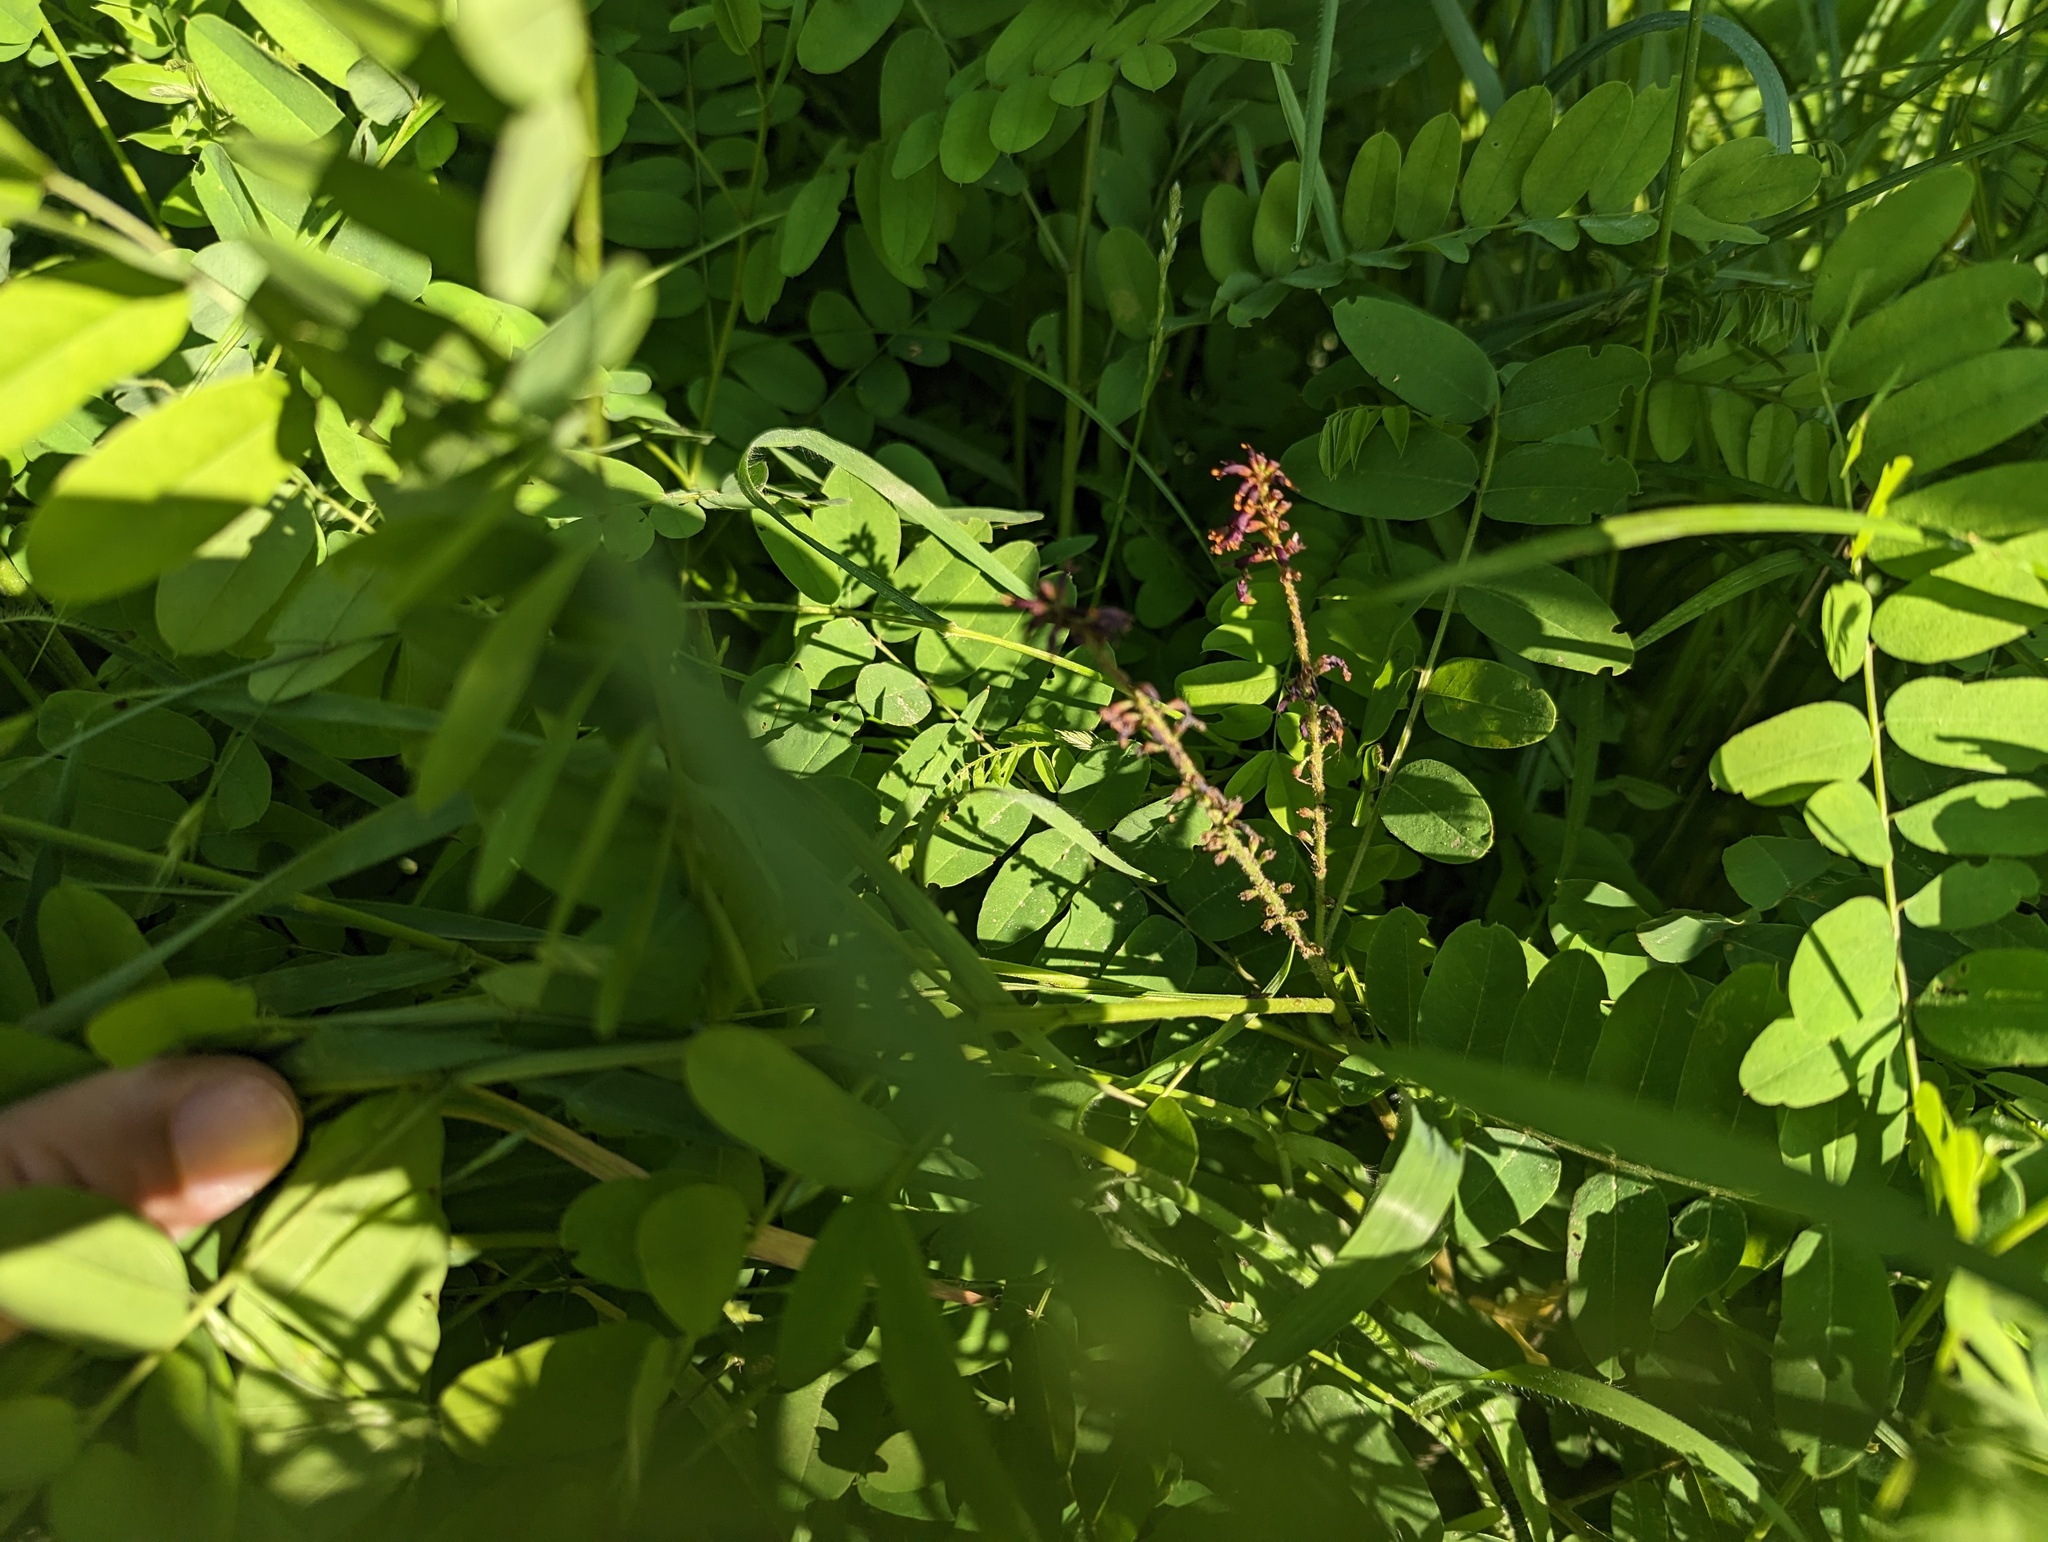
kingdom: Plantae
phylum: Tracheophyta
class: Magnoliopsida
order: Fabales
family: Fabaceae
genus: Amorpha
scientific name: Amorpha fruticosa
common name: False indigo
